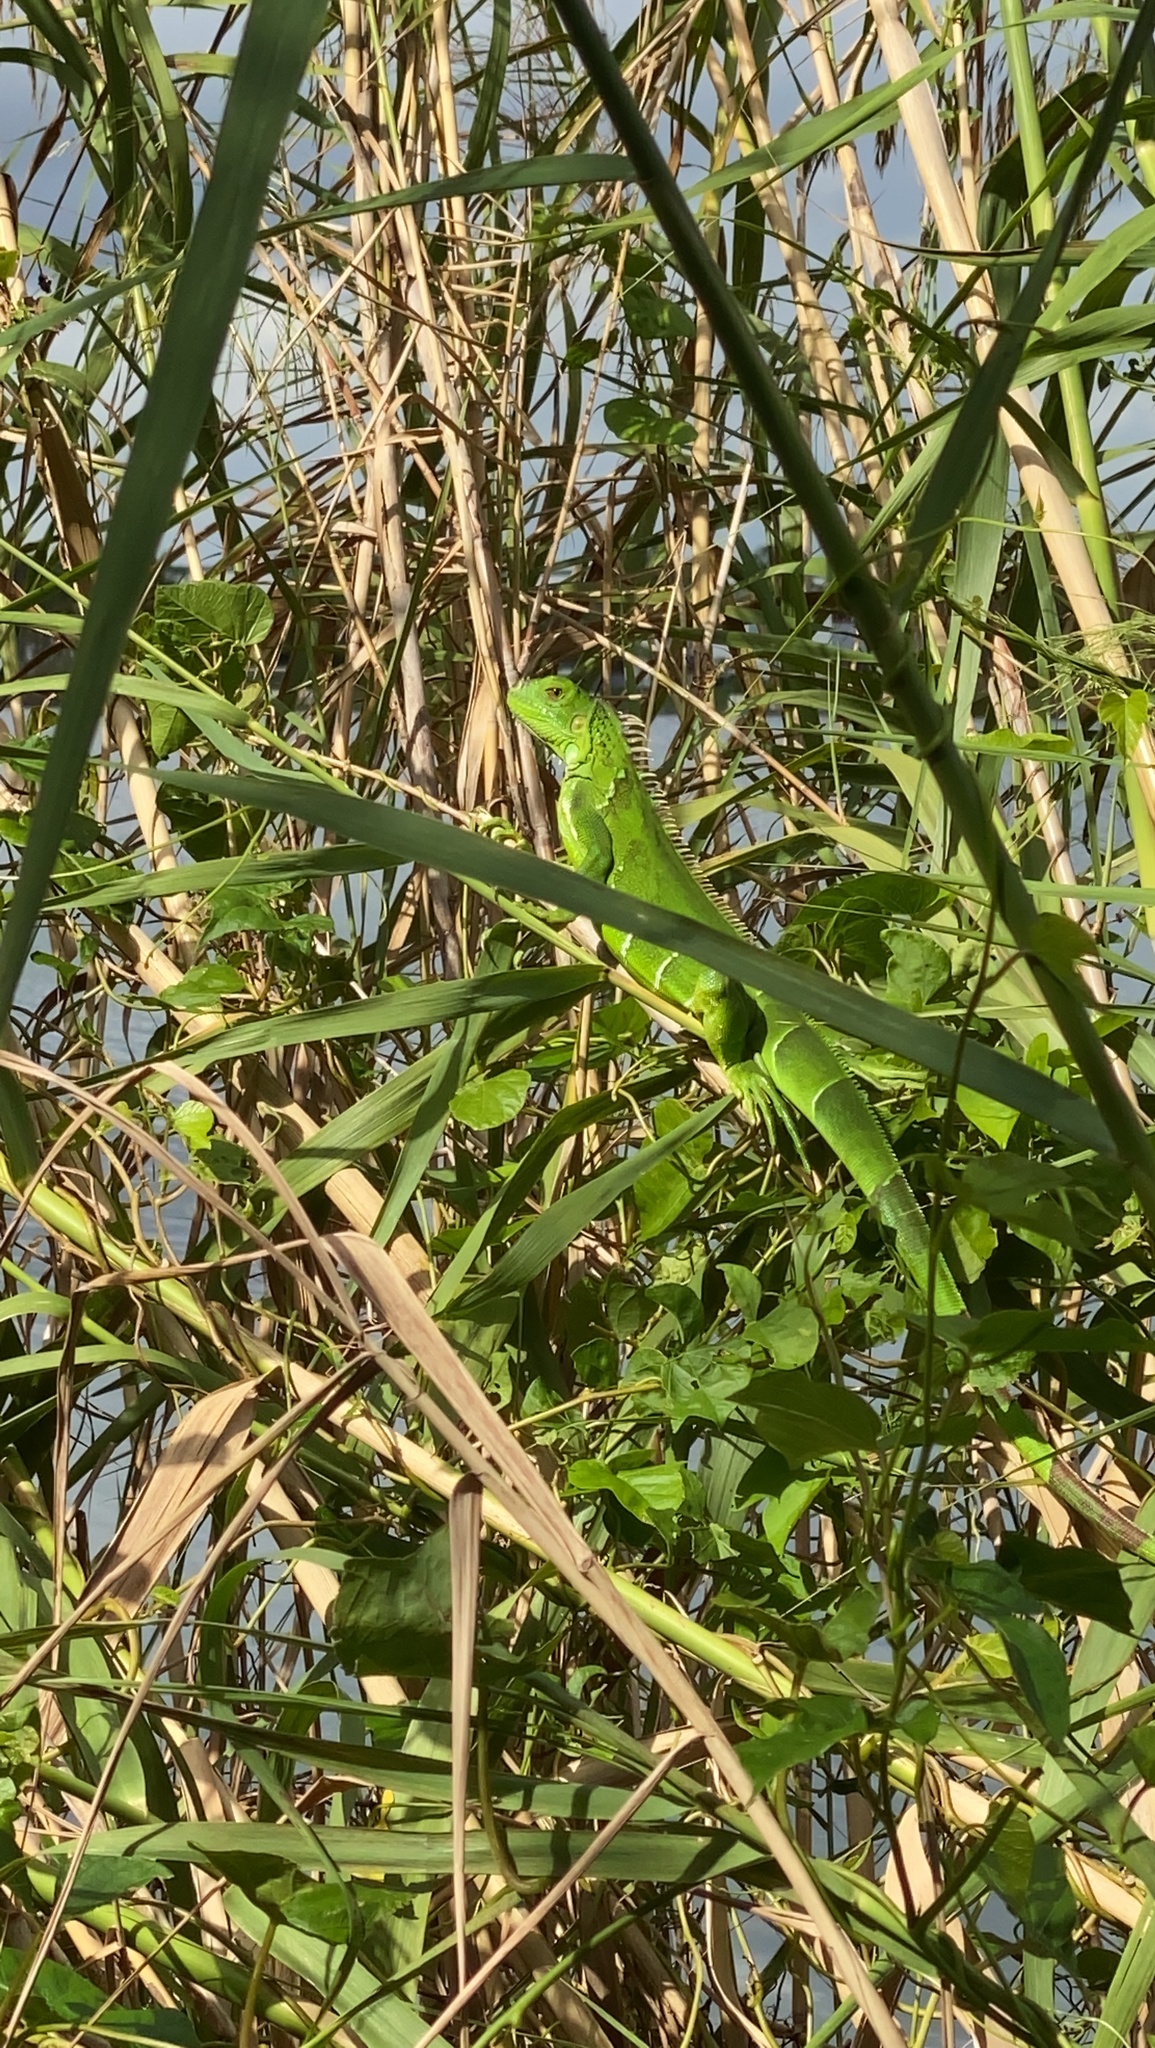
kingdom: Animalia
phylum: Chordata
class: Squamata
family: Iguanidae
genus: Iguana
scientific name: Iguana iguana
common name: Green iguana
